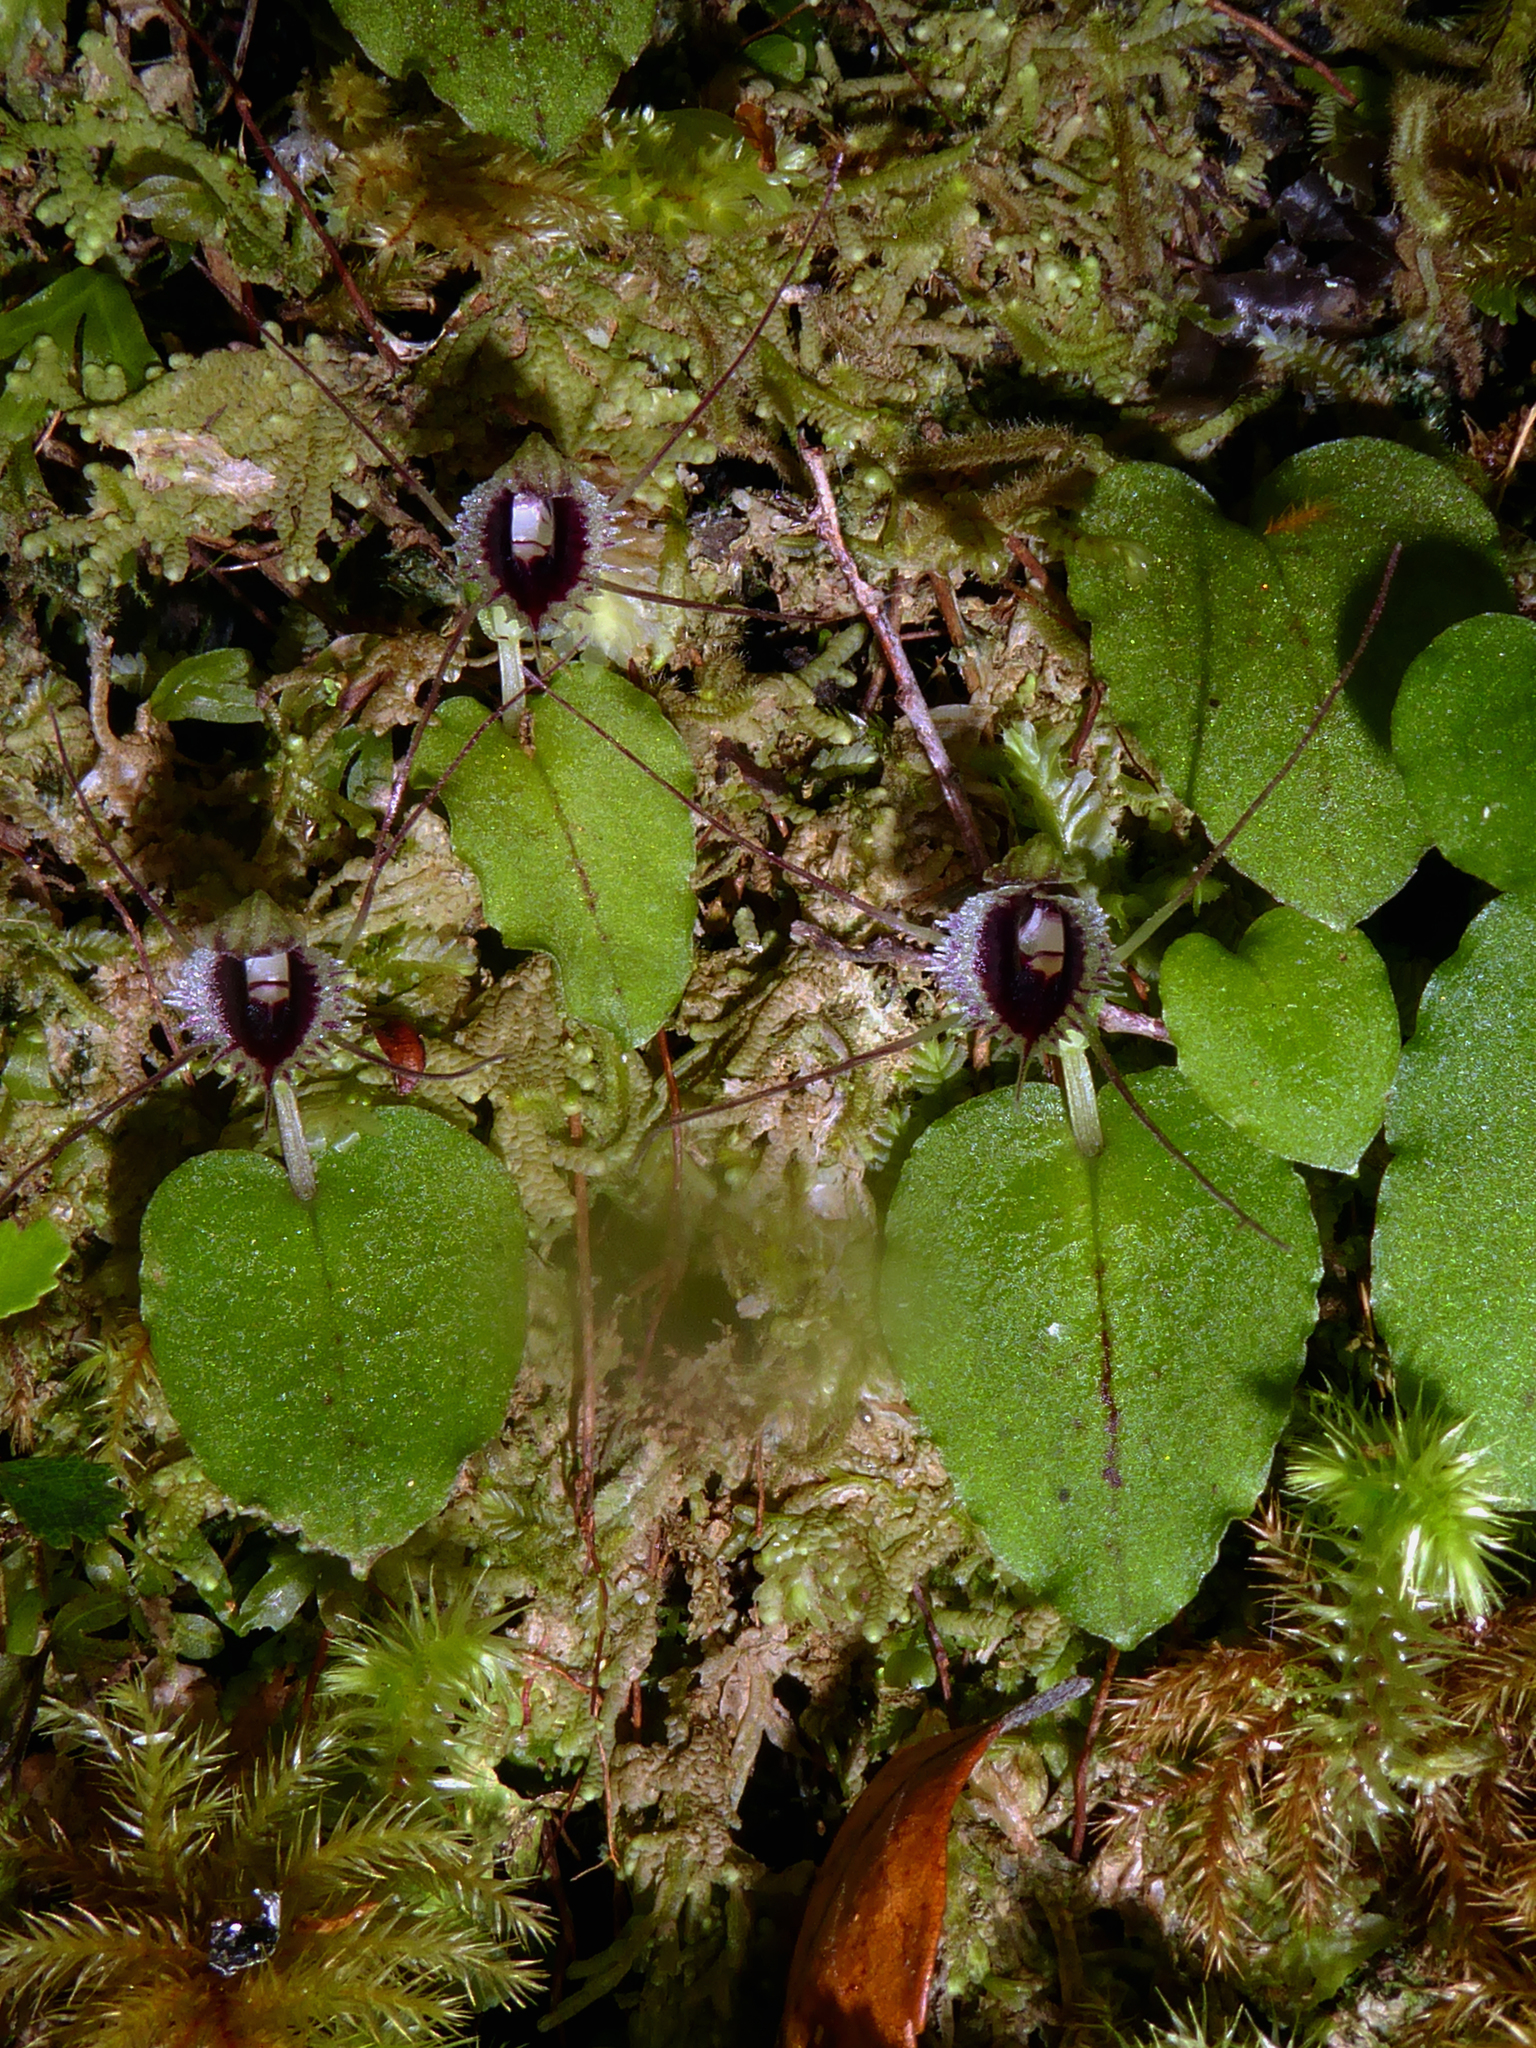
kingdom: Plantae
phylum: Tracheophyta
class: Liliopsida
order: Asparagales
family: Orchidaceae
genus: Corybas
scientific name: Corybas oblongus
